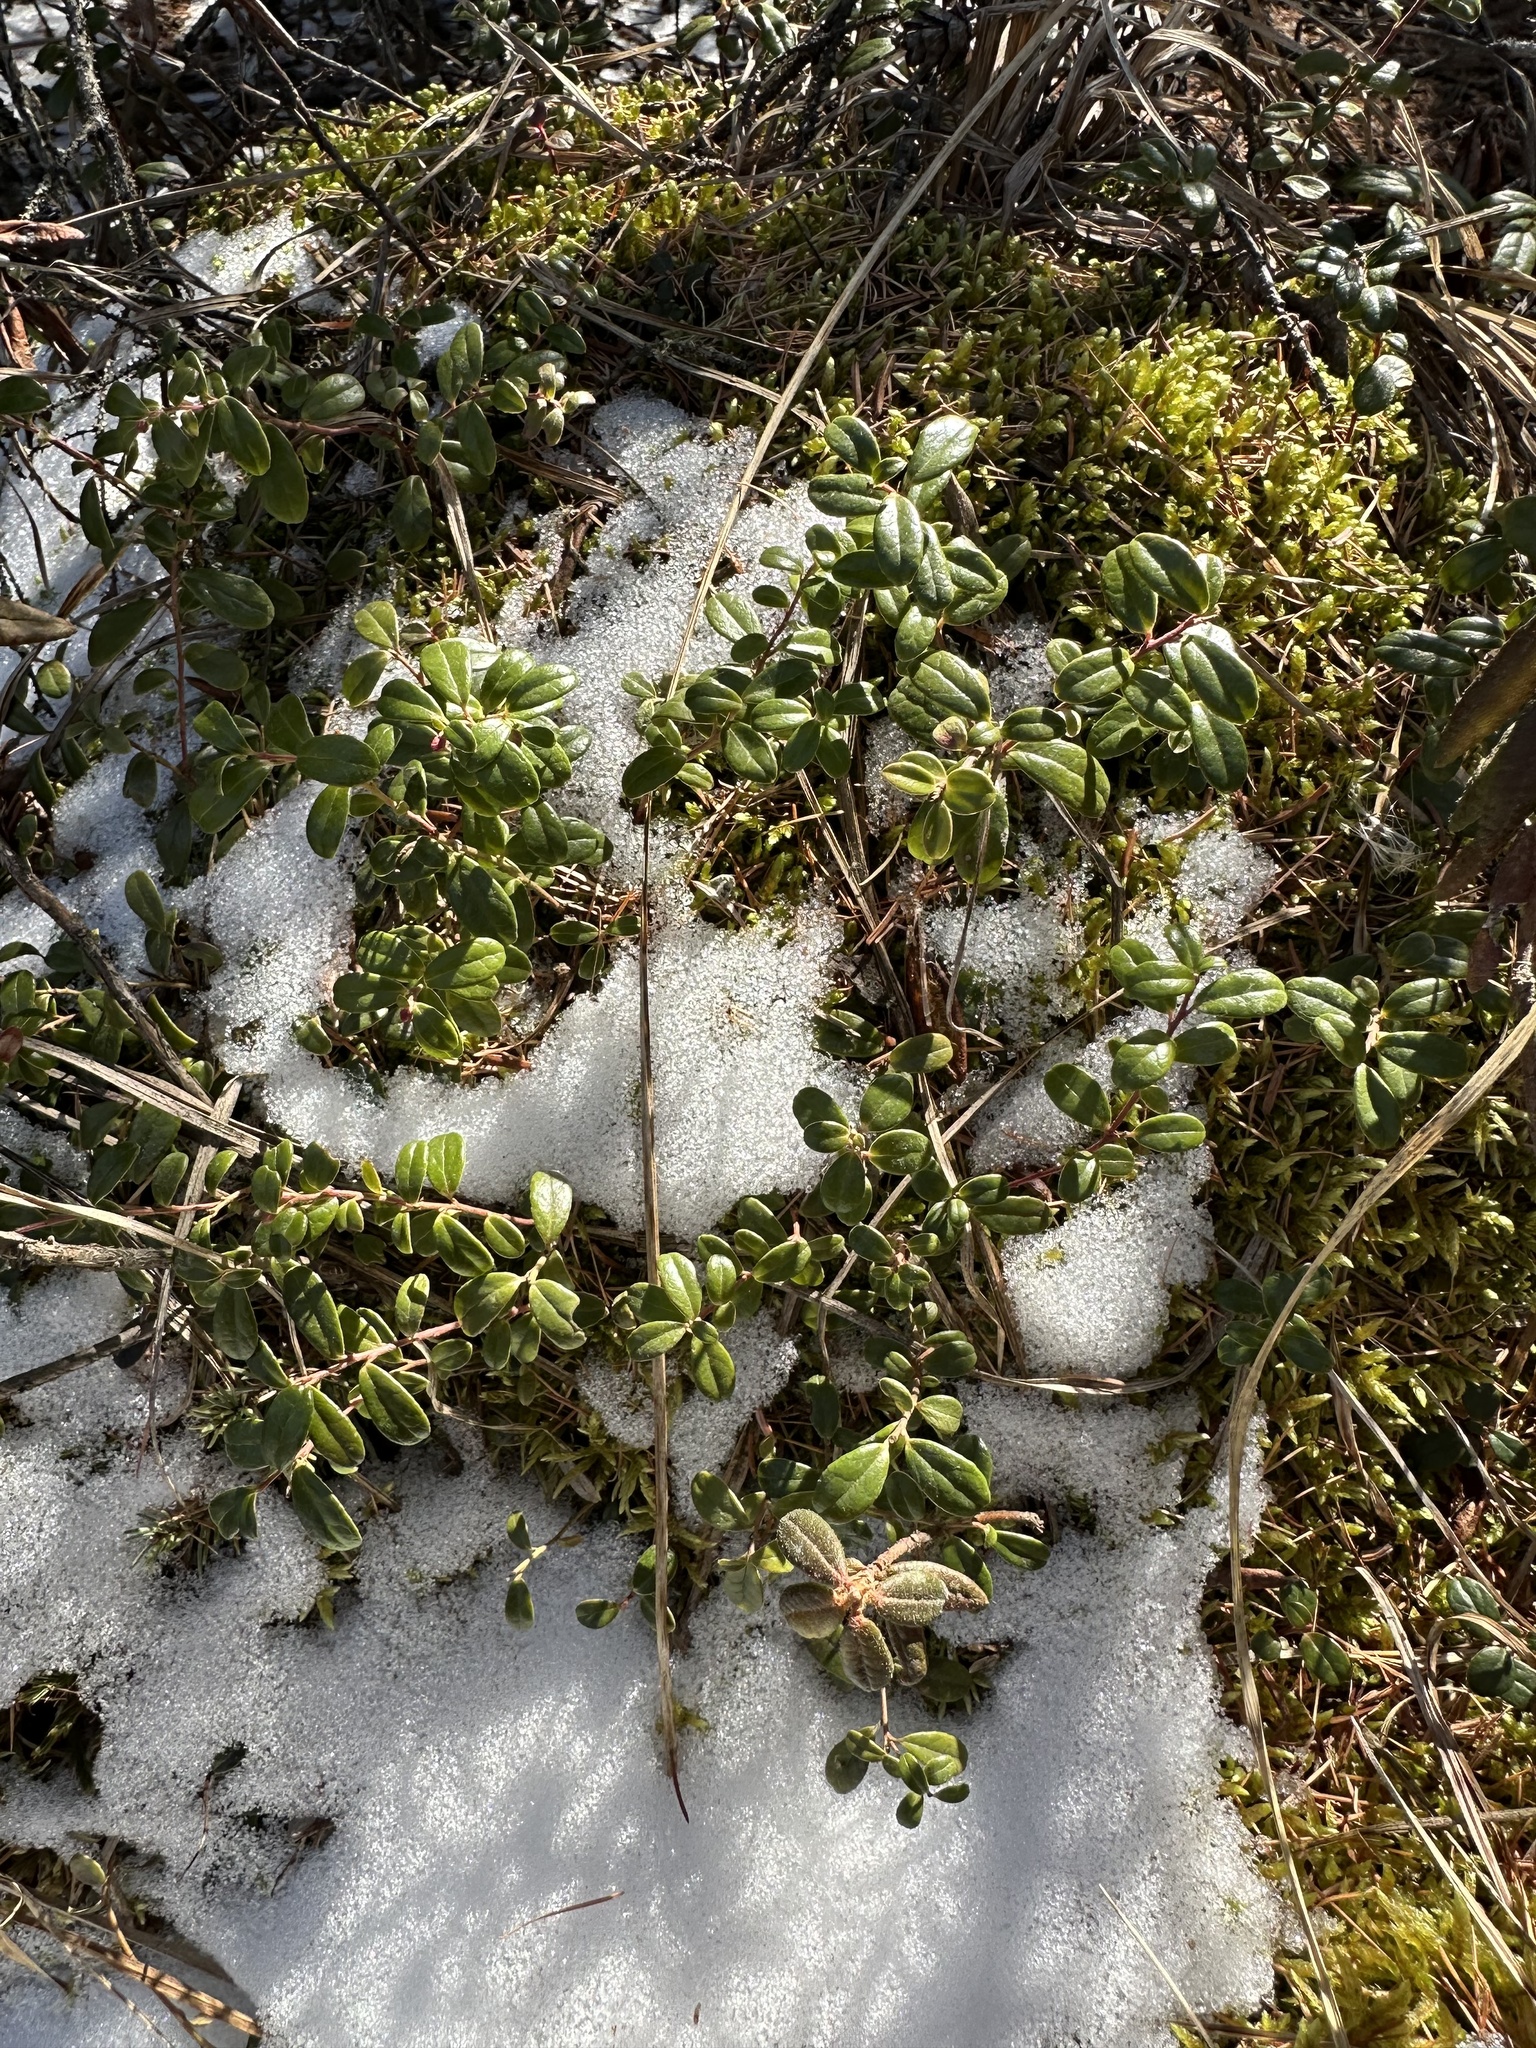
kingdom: Plantae
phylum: Tracheophyta
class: Magnoliopsida
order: Ericales
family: Ericaceae
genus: Vaccinium
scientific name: Vaccinium vitis-idaea
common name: Cowberry
